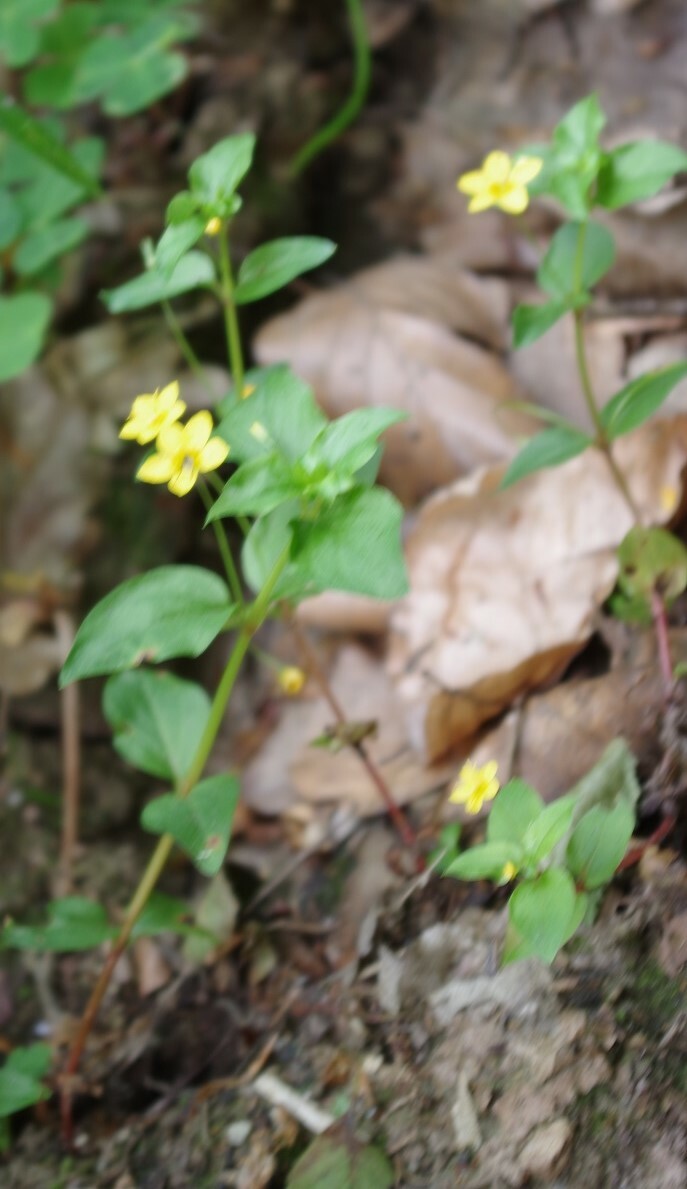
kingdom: Plantae
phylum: Tracheophyta
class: Magnoliopsida
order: Ericales
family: Primulaceae
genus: Lysimachia
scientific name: Lysimachia nemorum
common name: Yellow pimpernel
